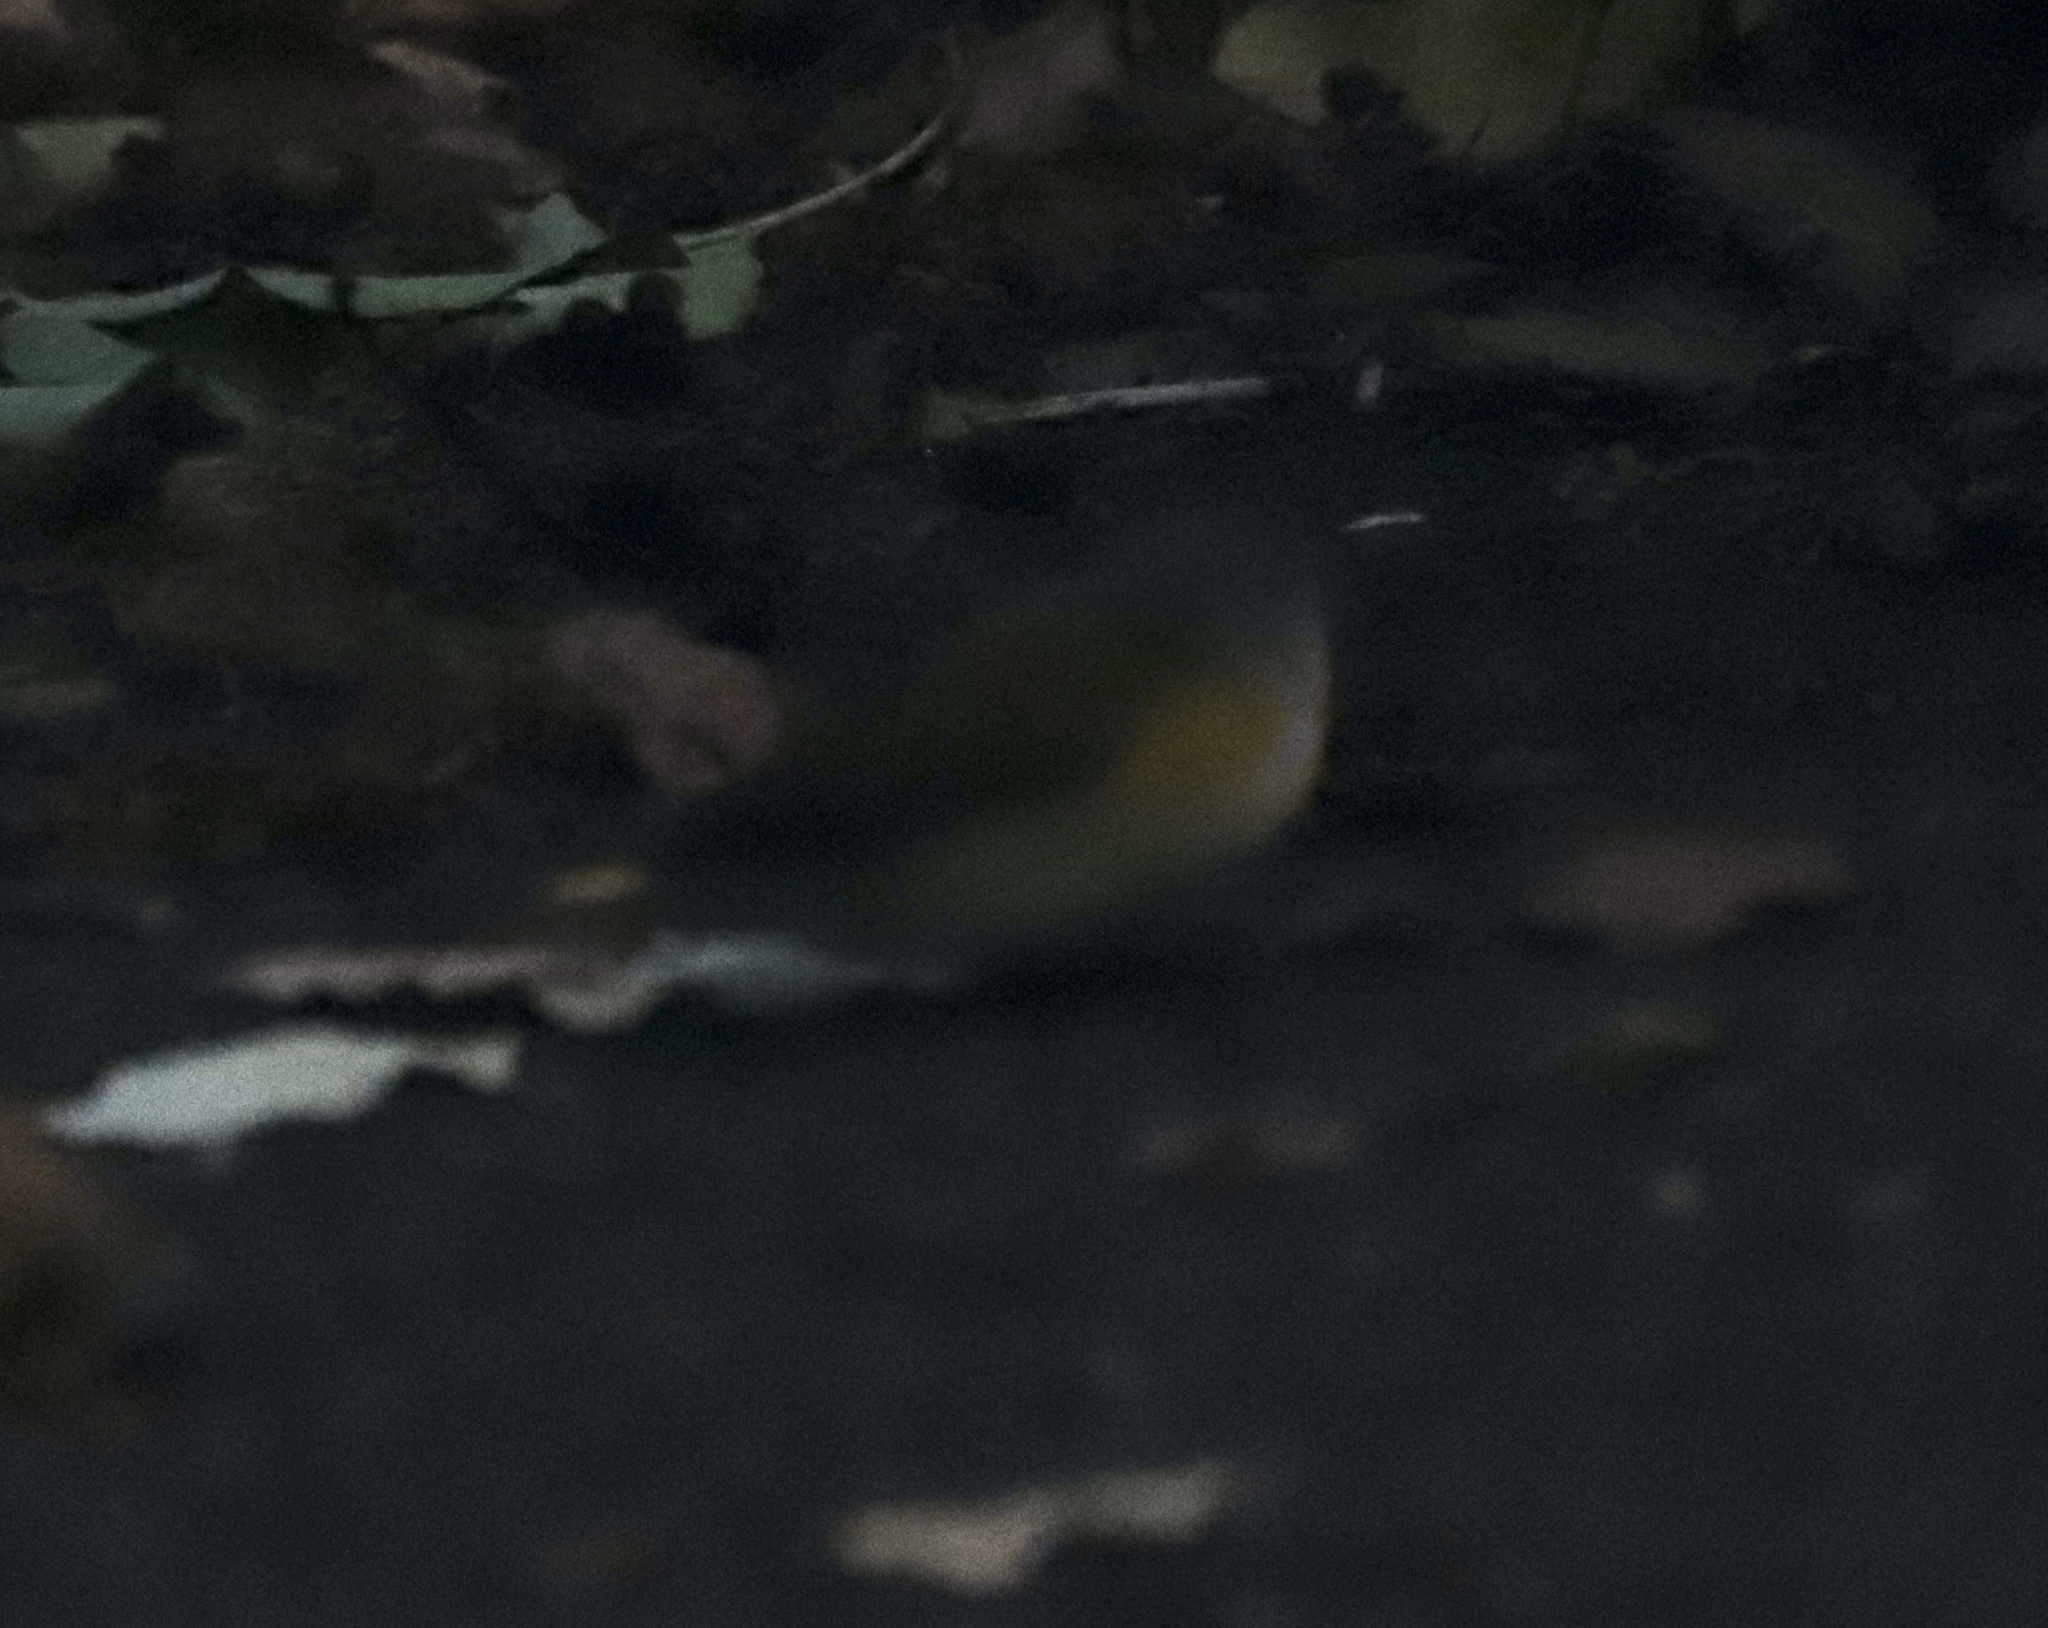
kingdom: Animalia
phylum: Chordata
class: Aves
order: Passeriformes
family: Parulidae
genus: Setophaga
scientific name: Setophaga ruticilla
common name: American redstart
